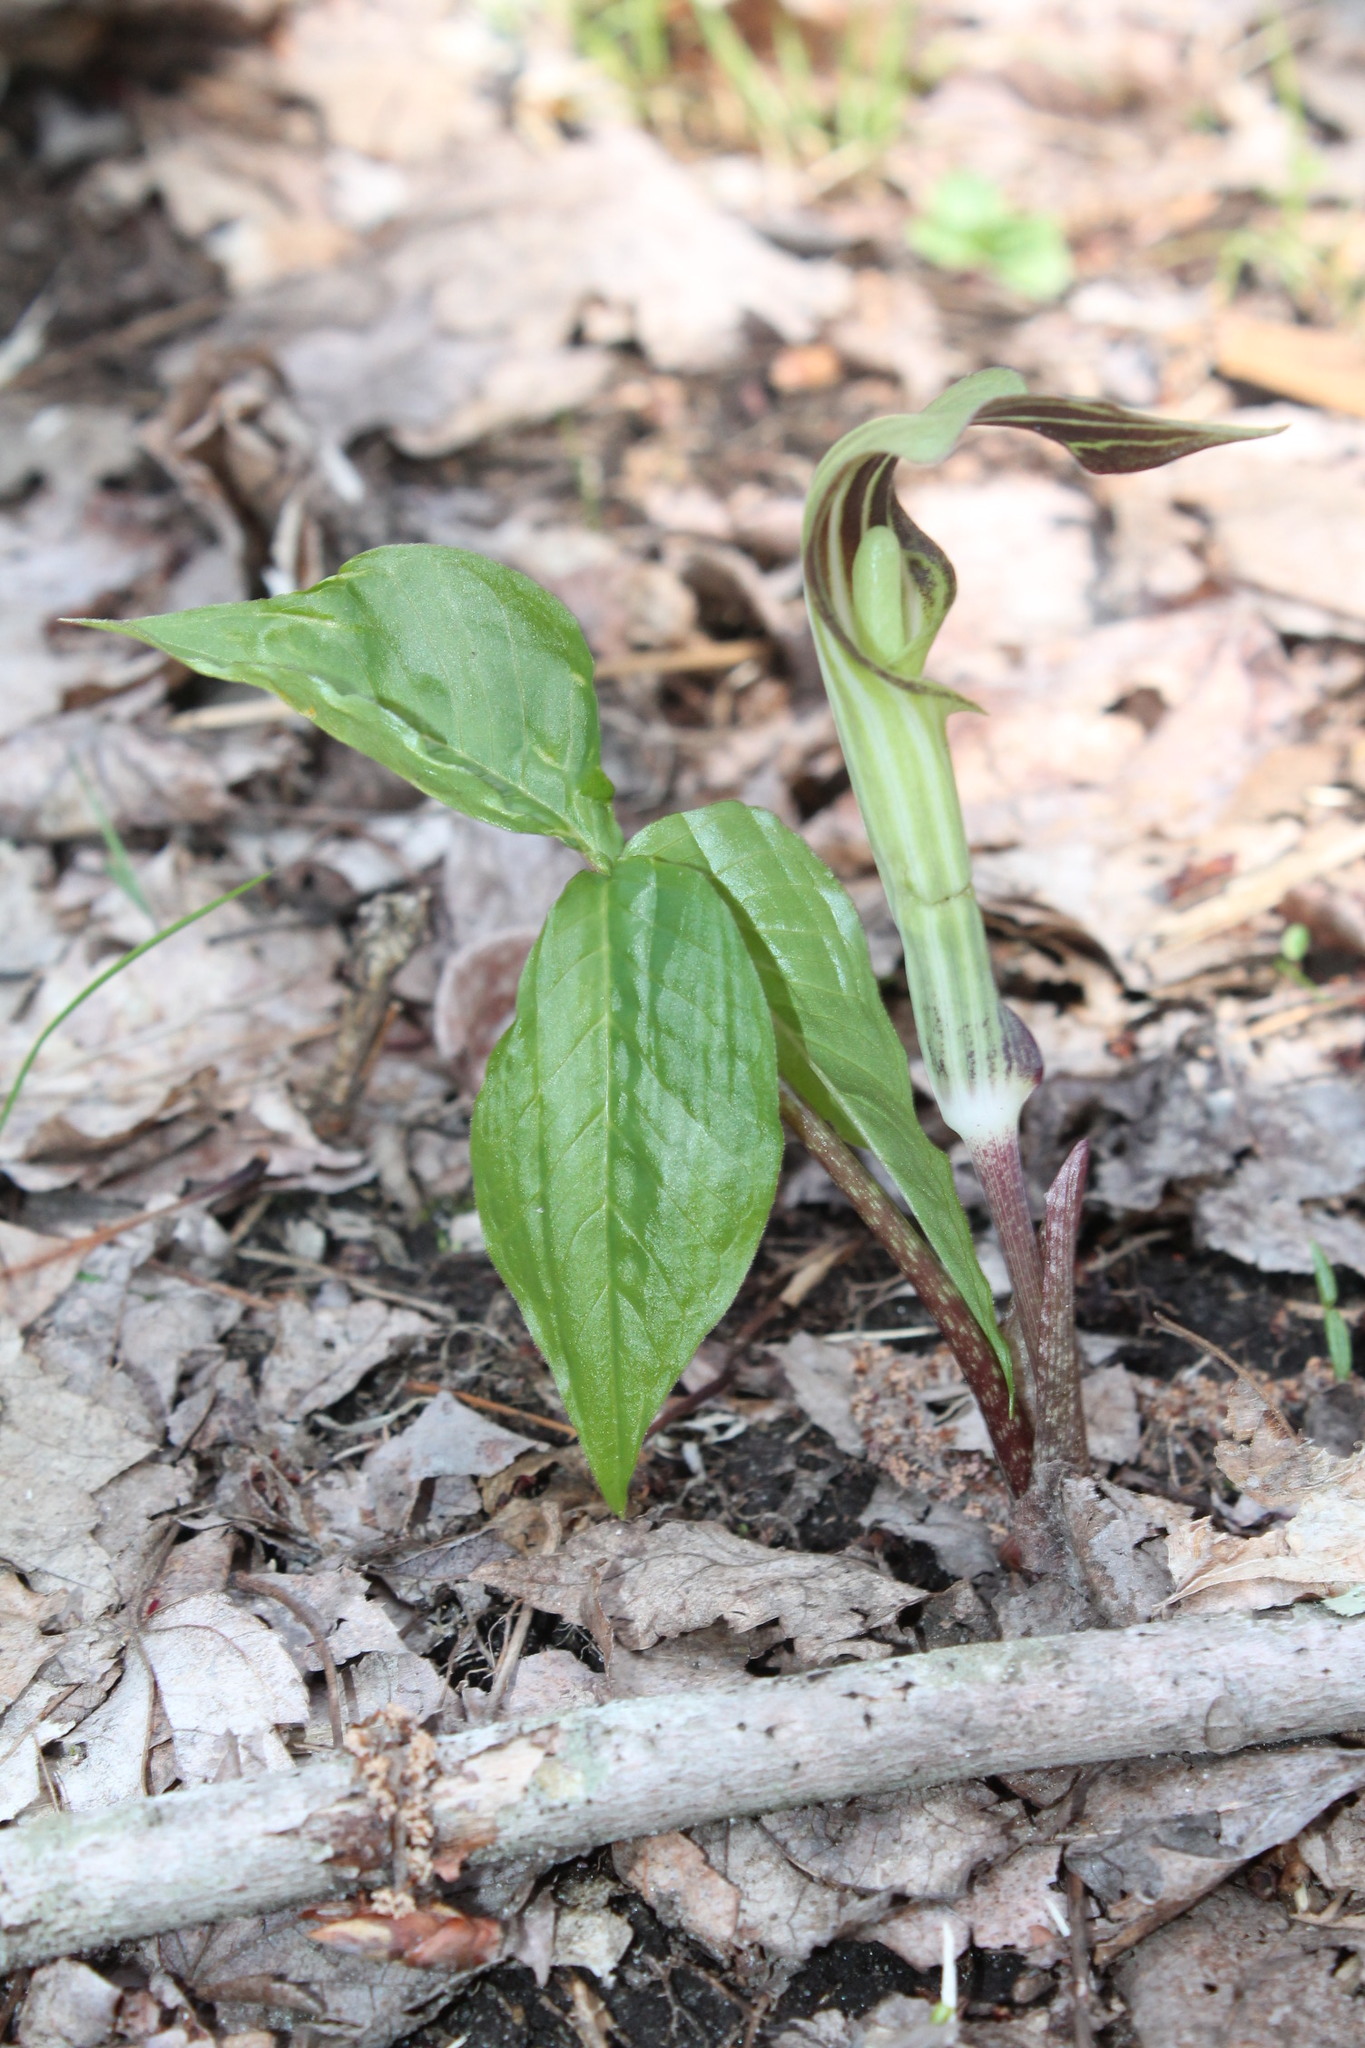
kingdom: Plantae
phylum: Tracheophyta
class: Liliopsida
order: Alismatales
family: Araceae
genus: Arisaema
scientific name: Arisaema triphyllum
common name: Jack-in-the-pulpit
